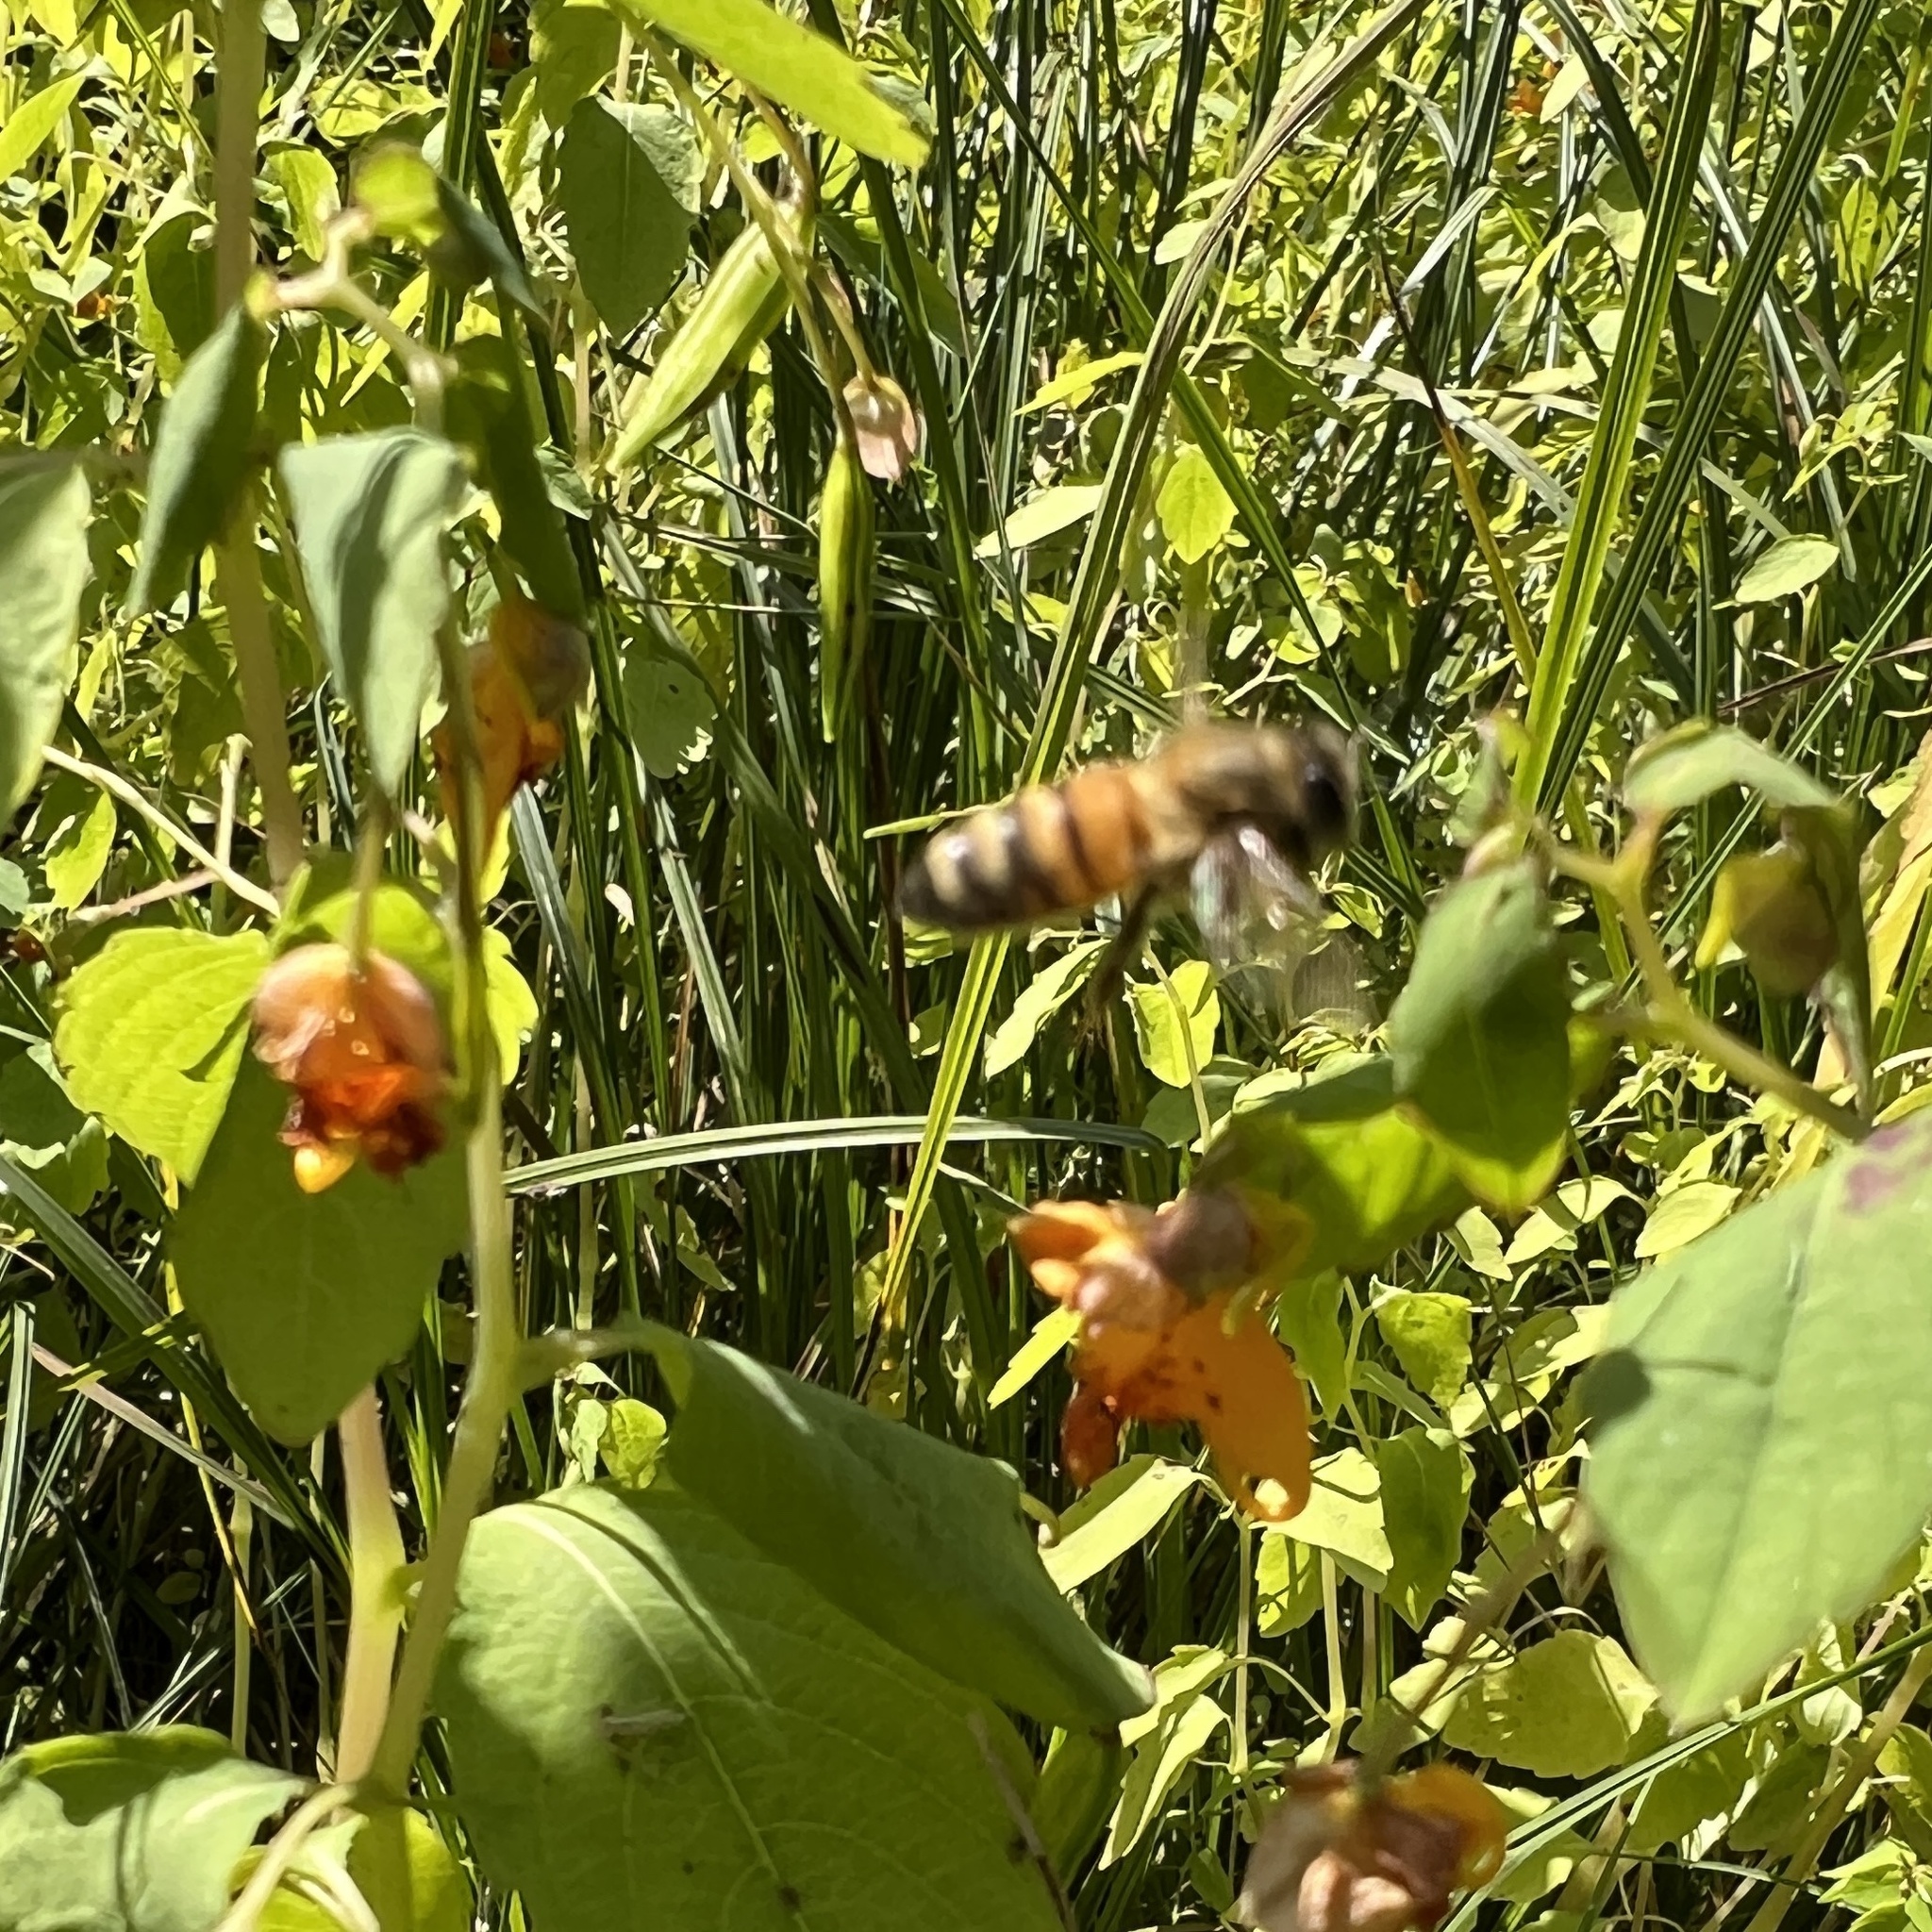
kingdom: Animalia
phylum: Arthropoda
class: Insecta
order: Hymenoptera
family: Apidae
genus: Apis
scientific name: Apis mellifera
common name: Honey bee
